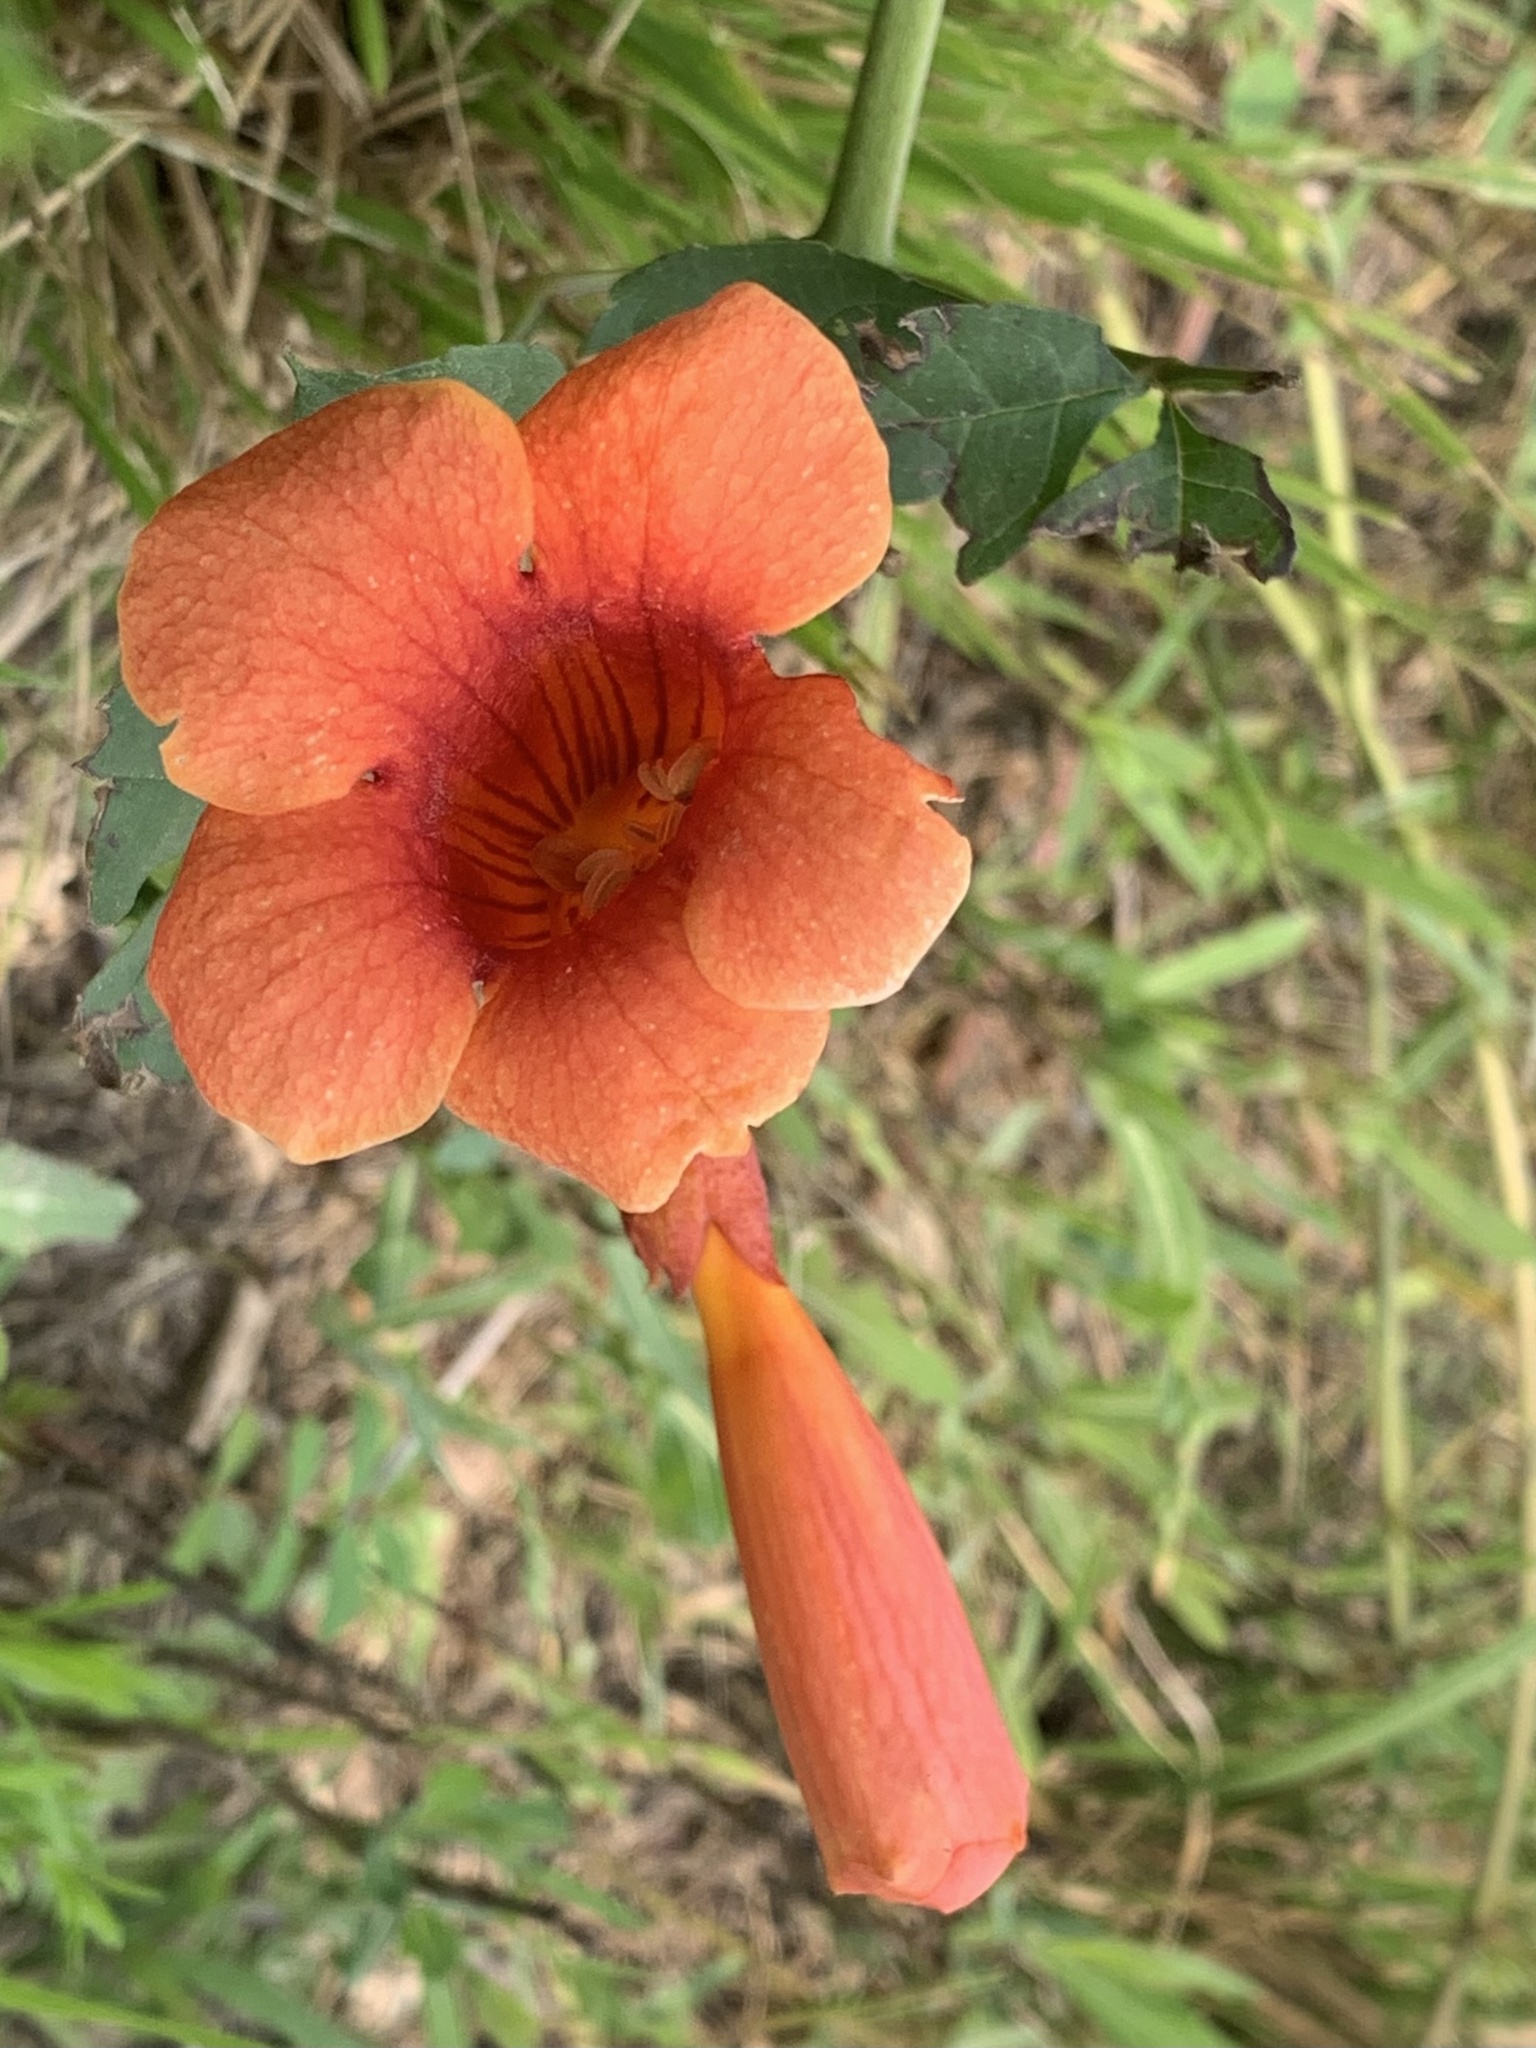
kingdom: Plantae
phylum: Tracheophyta
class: Magnoliopsida
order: Lamiales
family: Bignoniaceae
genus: Campsis
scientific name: Campsis radicans
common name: Trumpet-creeper
